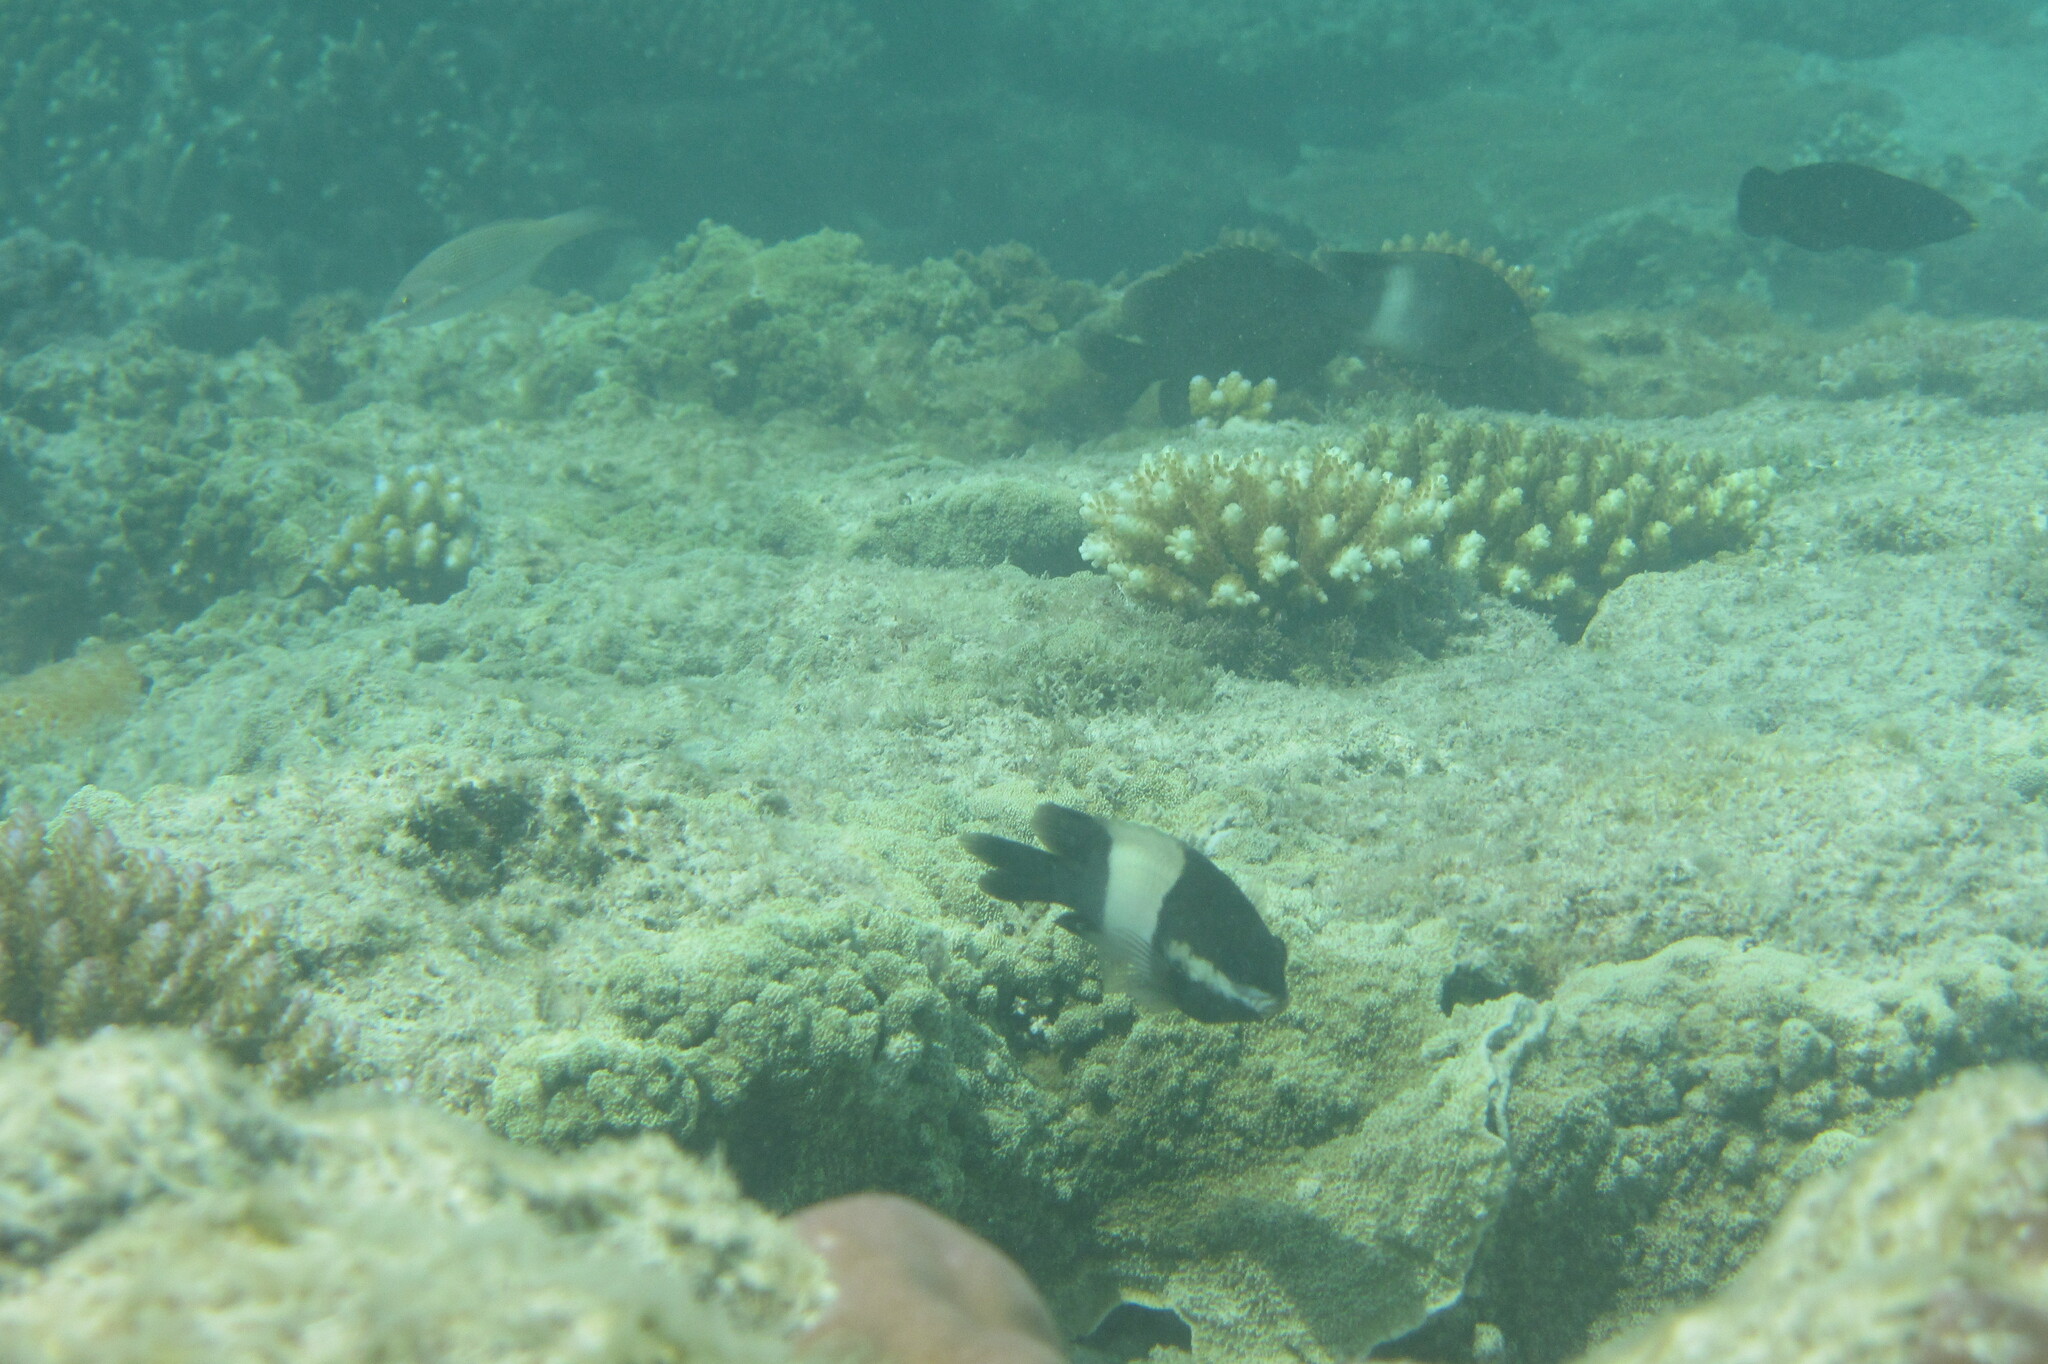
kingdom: Animalia
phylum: Chordata
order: Perciformes
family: Pomacentridae
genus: Stegastes
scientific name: Stegastes nigricans
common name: Dusky gregory
